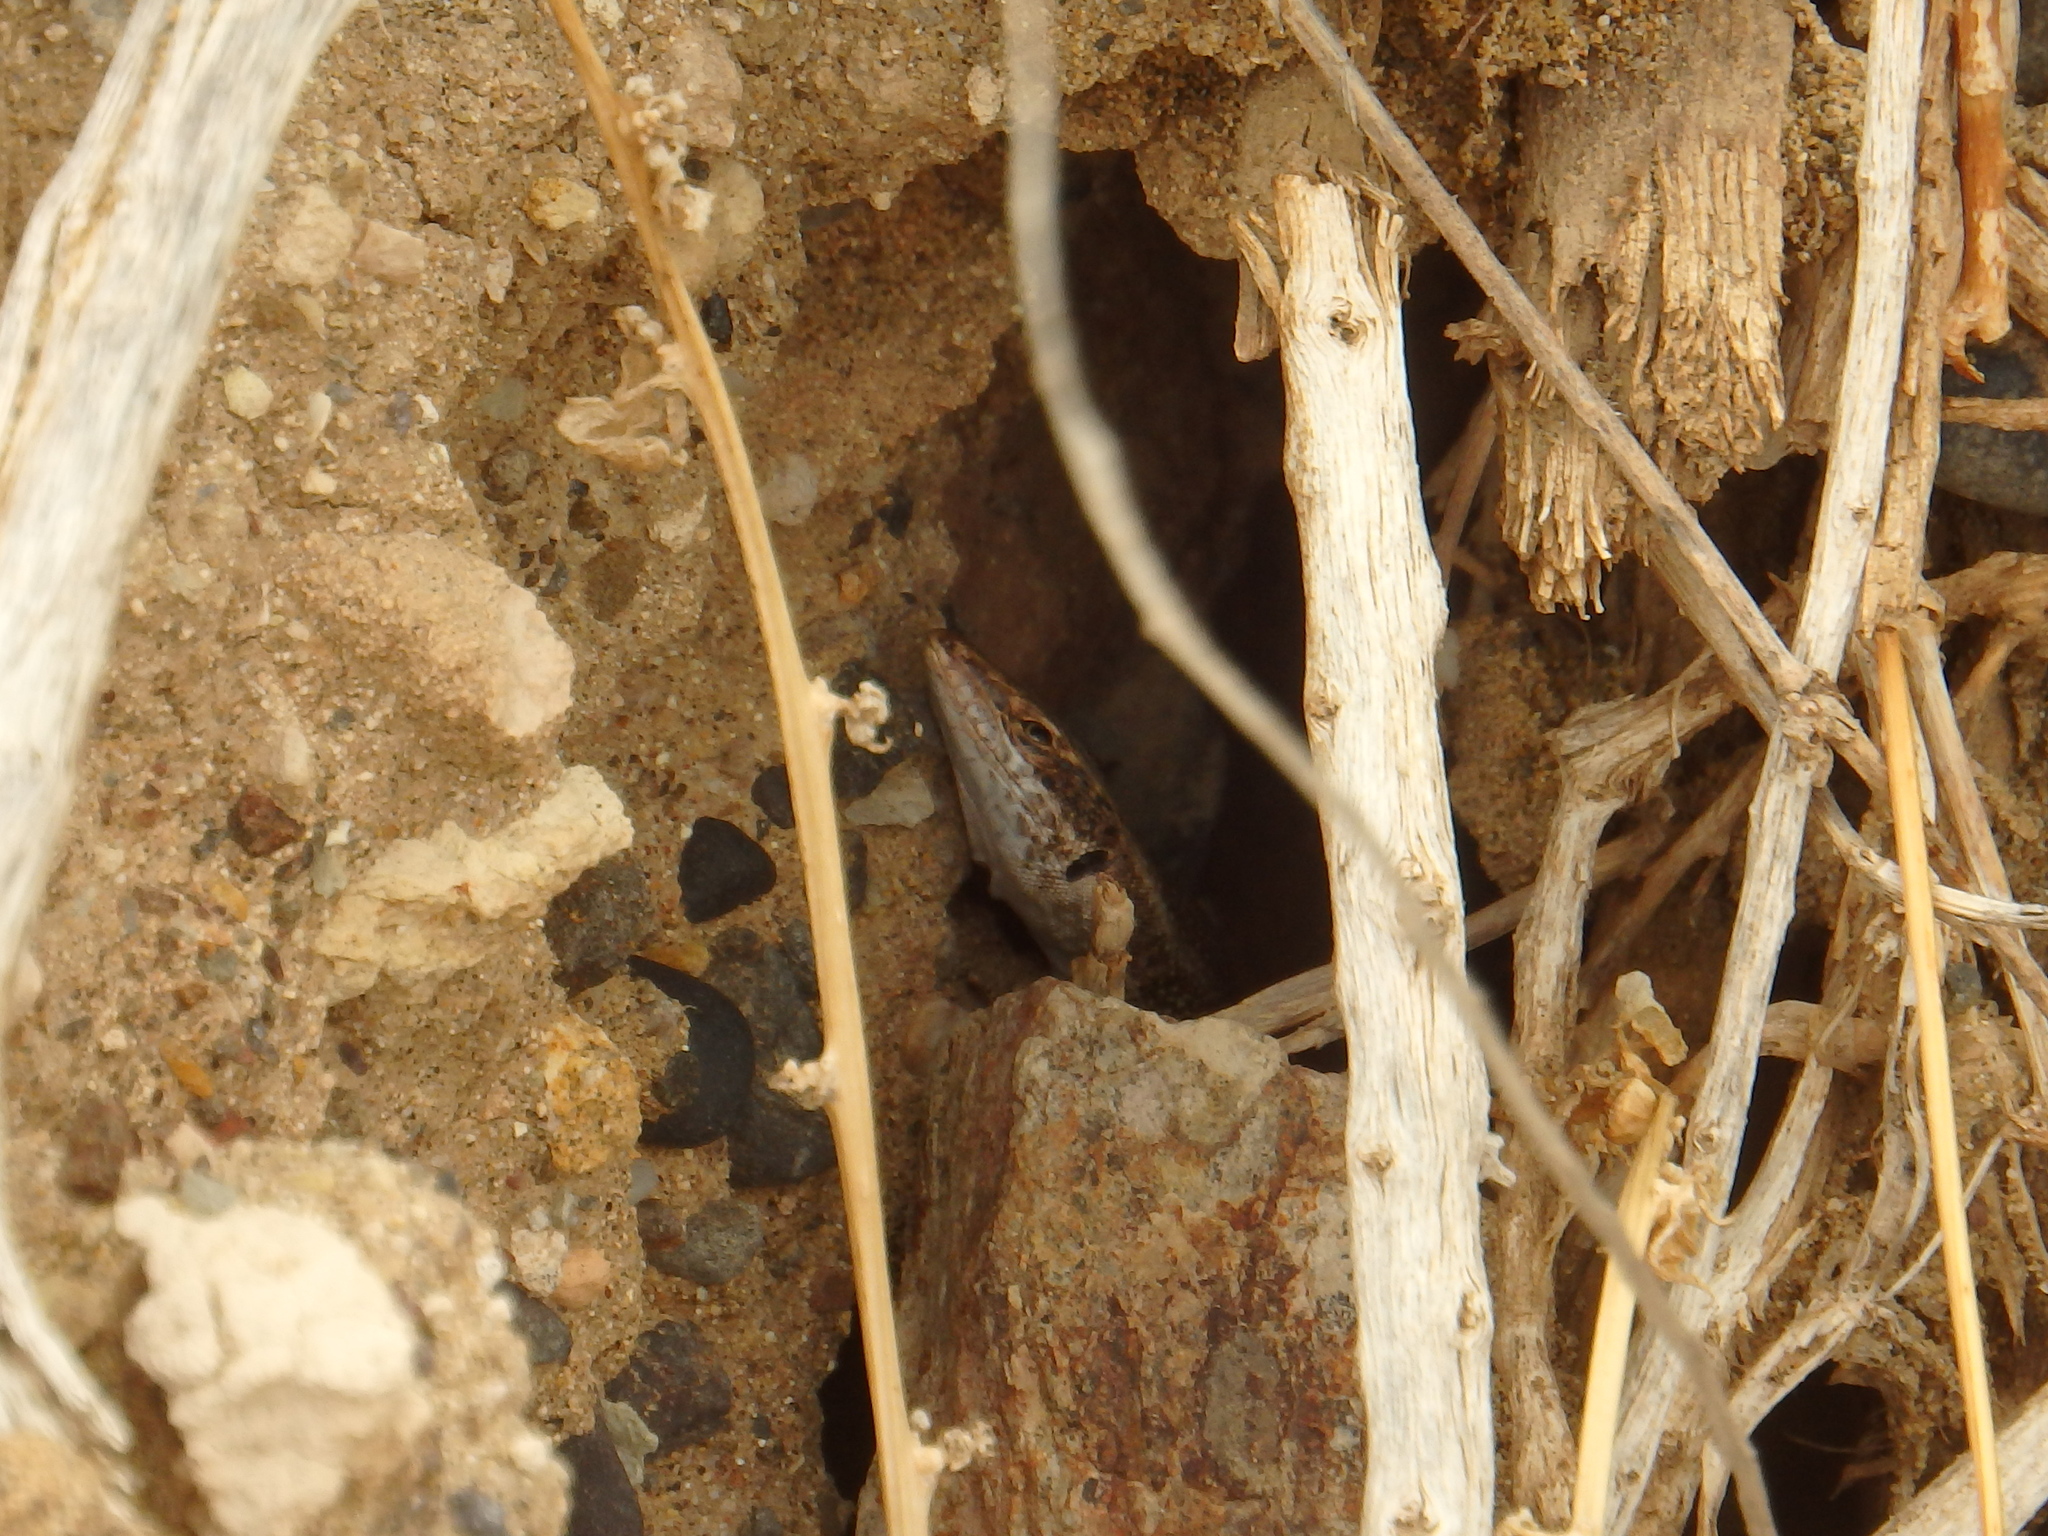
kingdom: Animalia
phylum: Chordata
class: Squamata
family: Lacertidae
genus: Teira
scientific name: Teira dugesii
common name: Madeira lizard
